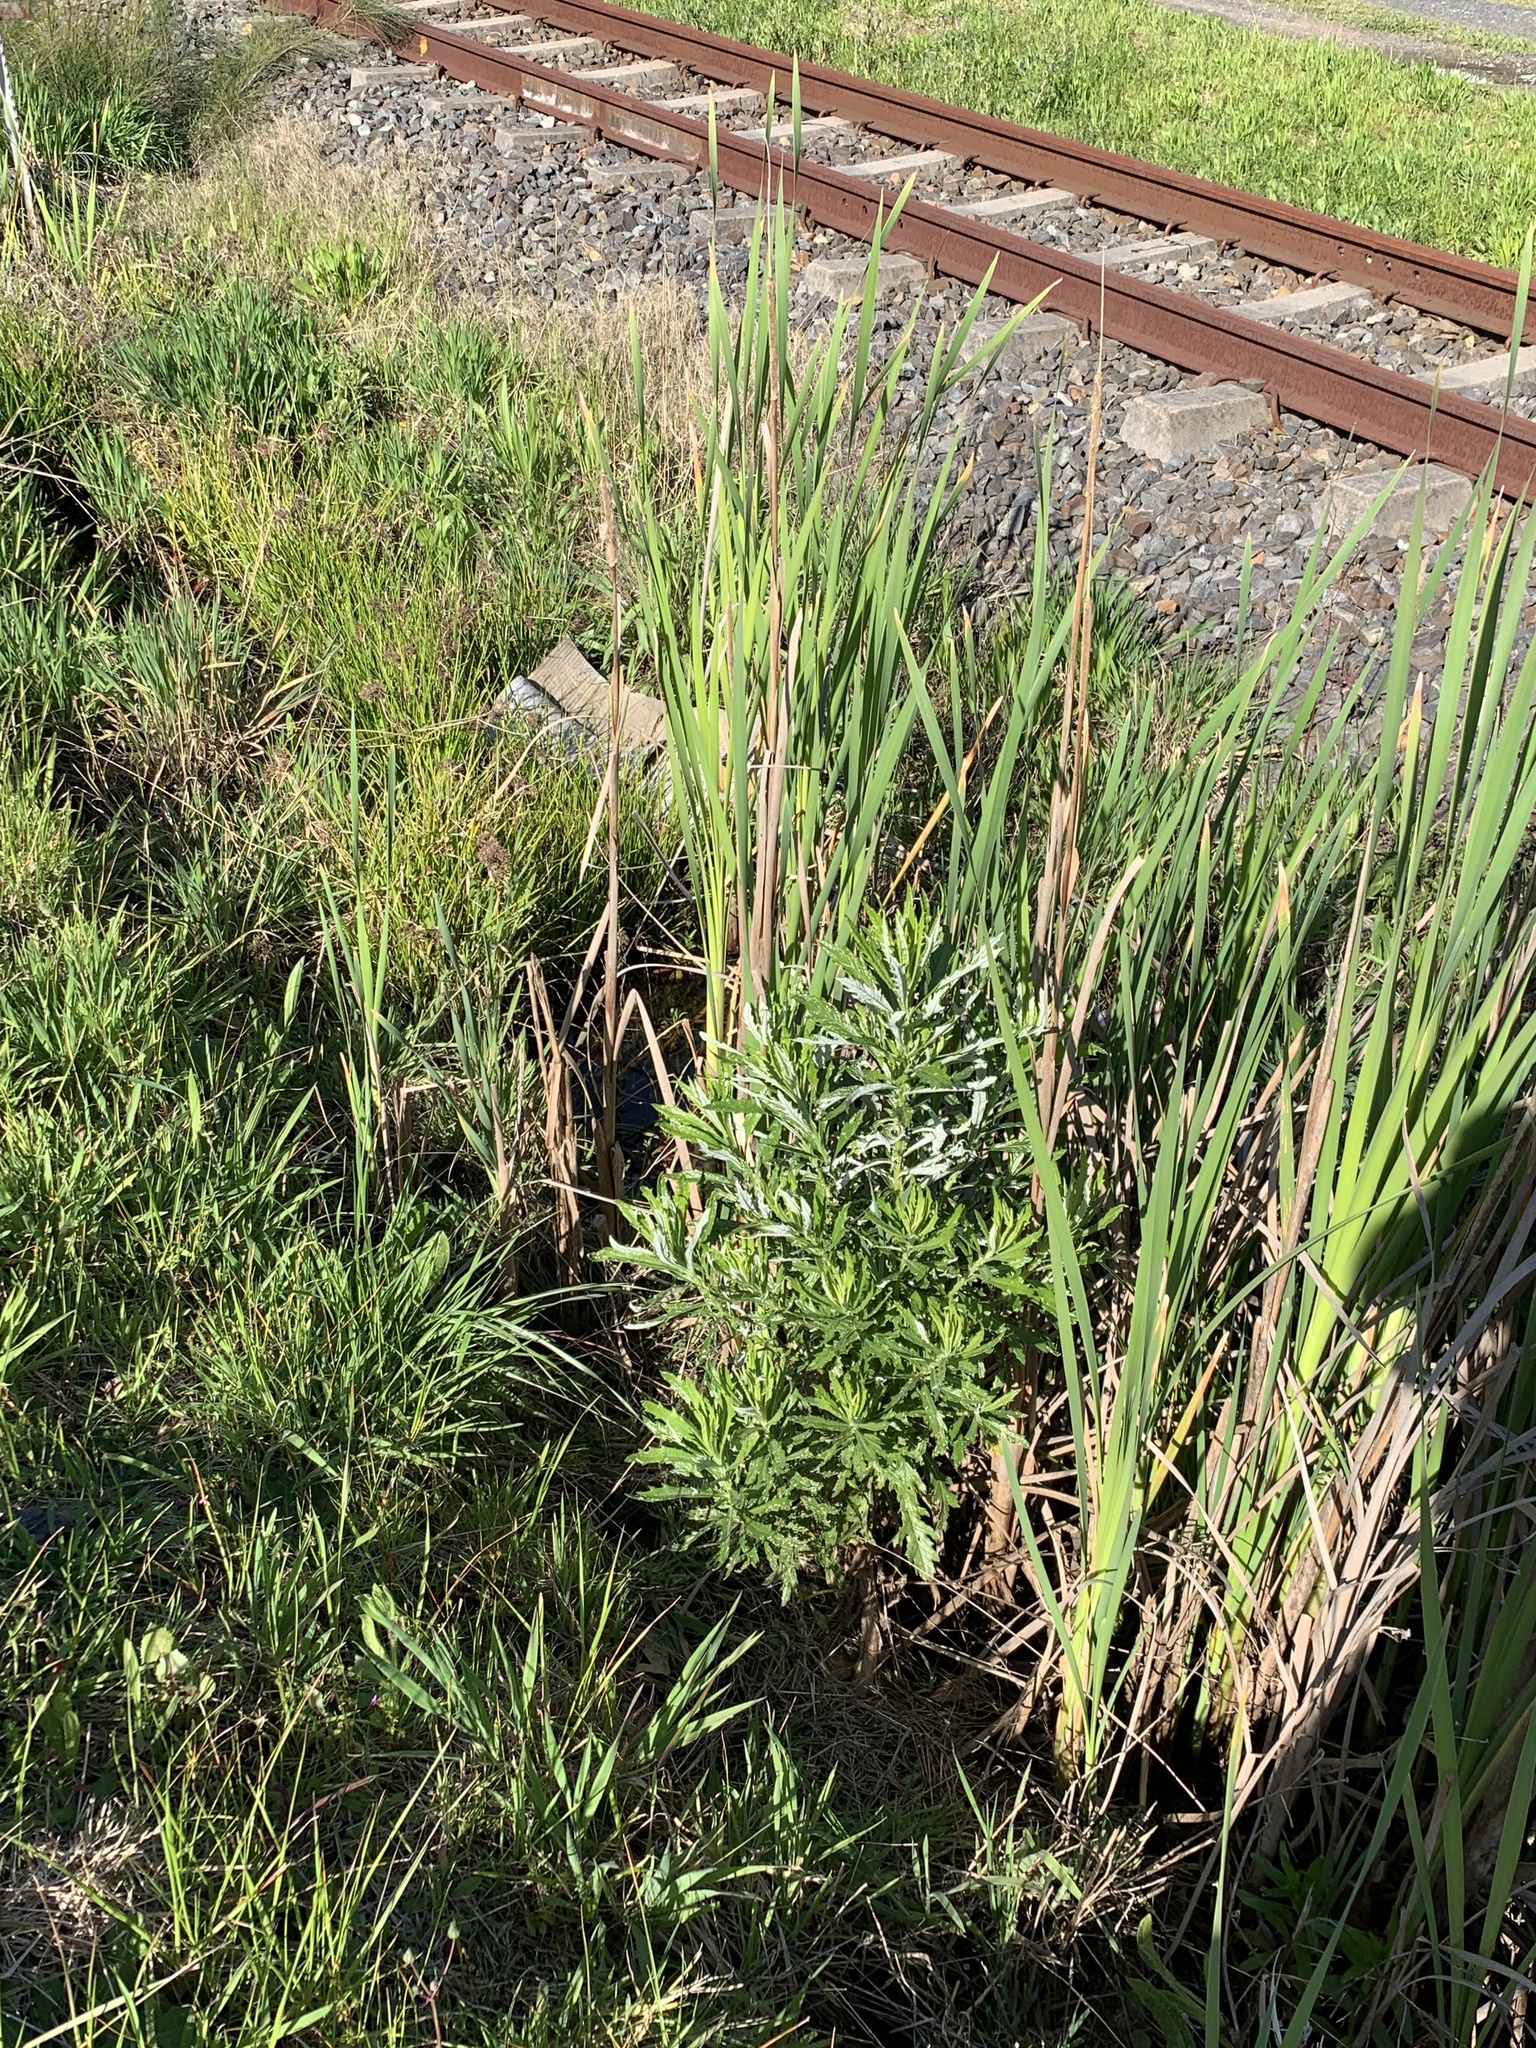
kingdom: Plantae
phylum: Tracheophyta
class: Magnoliopsida
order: Asterales
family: Asteraceae
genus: Senecio
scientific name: Senecio pterophorus
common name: Shoddy ragwort
